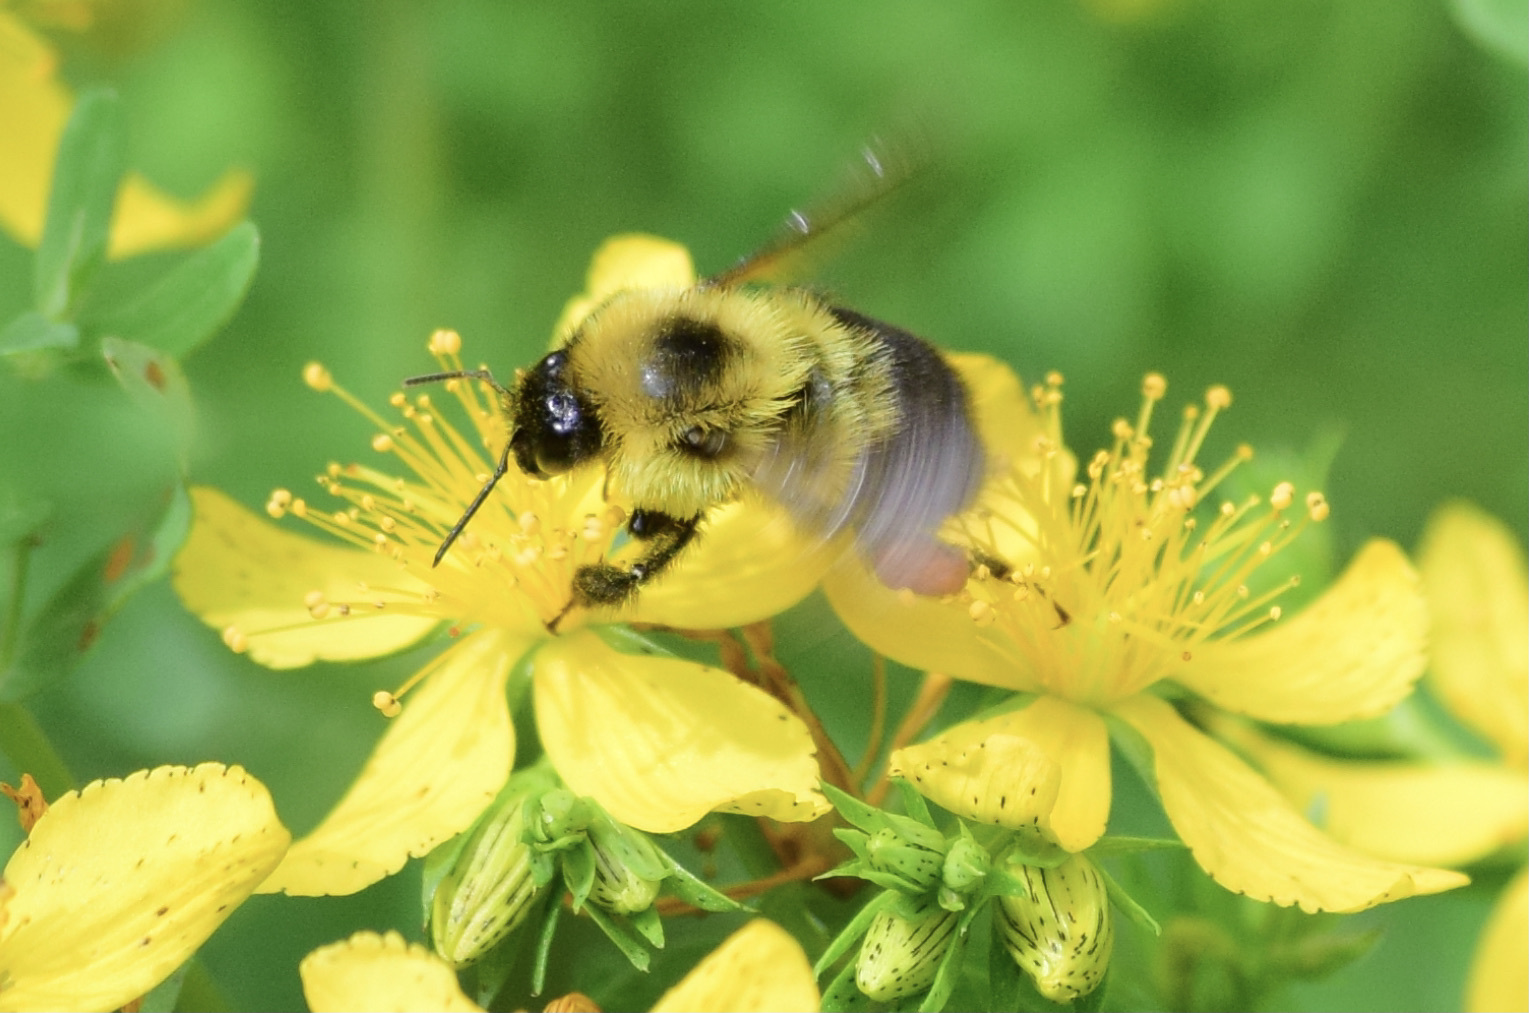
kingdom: Animalia
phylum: Arthropoda
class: Insecta
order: Hymenoptera
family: Apidae
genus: Bombus
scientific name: Bombus bimaculatus
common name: Two-spotted bumble bee
